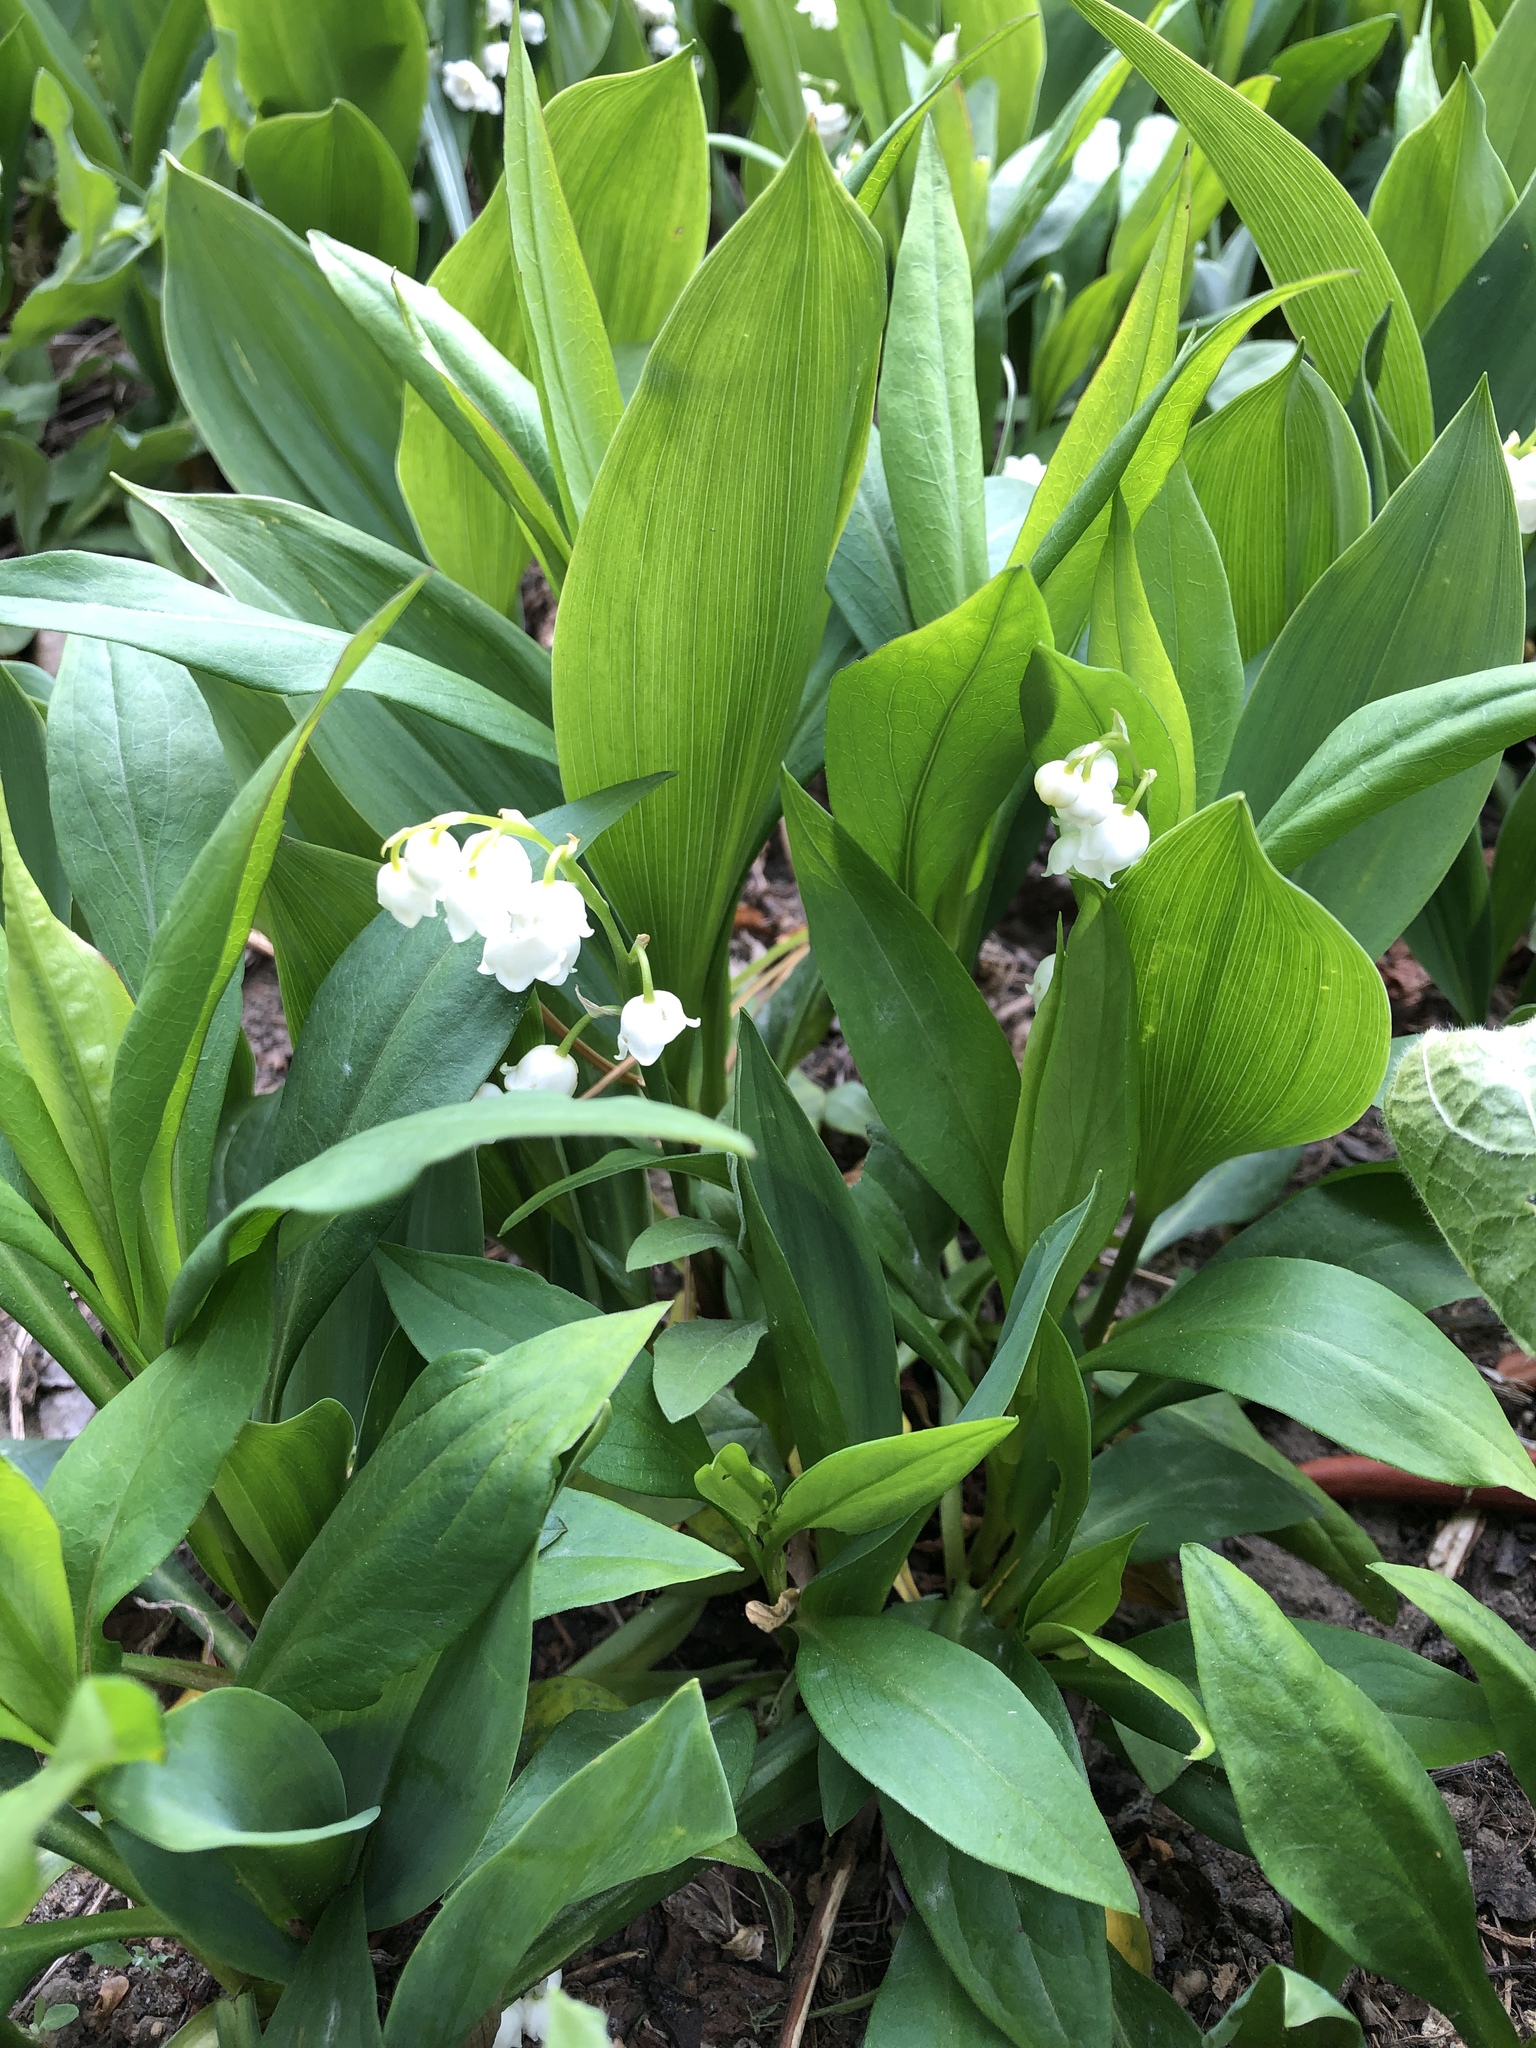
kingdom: Plantae
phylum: Tracheophyta
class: Liliopsida
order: Asparagales
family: Asparagaceae
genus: Convallaria
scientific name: Convallaria majalis
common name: Lily-of-the-valley
